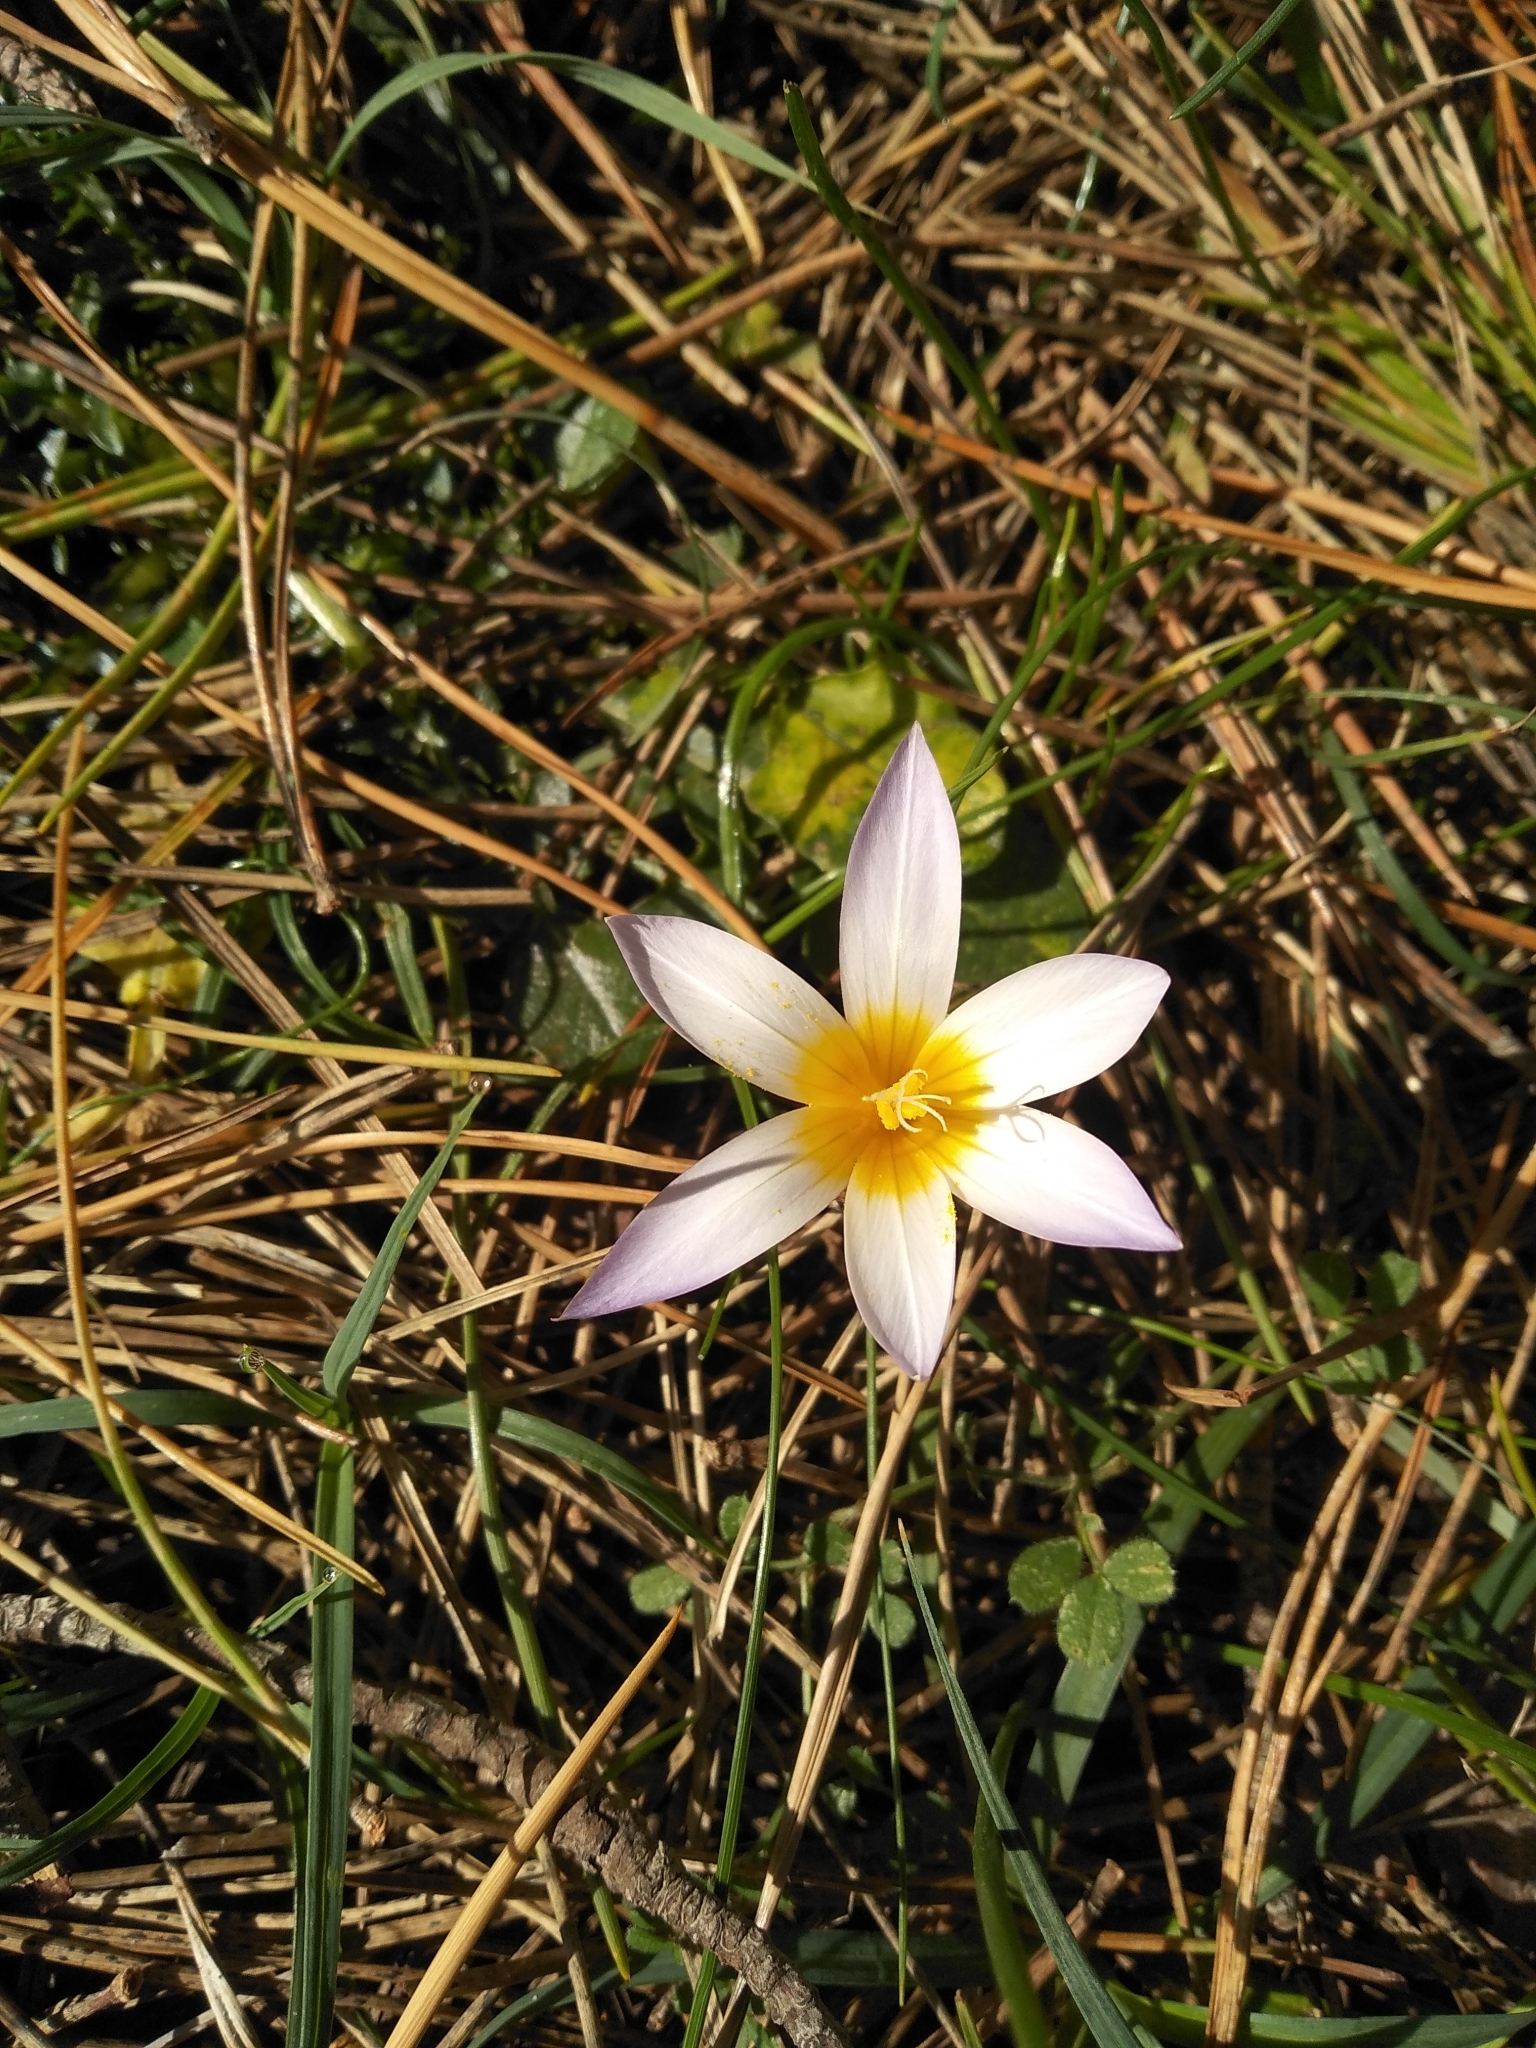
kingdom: Plantae
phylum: Tracheophyta
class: Liliopsida
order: Asparagales
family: Iridaceae
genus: Romulea
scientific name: Romulea bulbocodium
